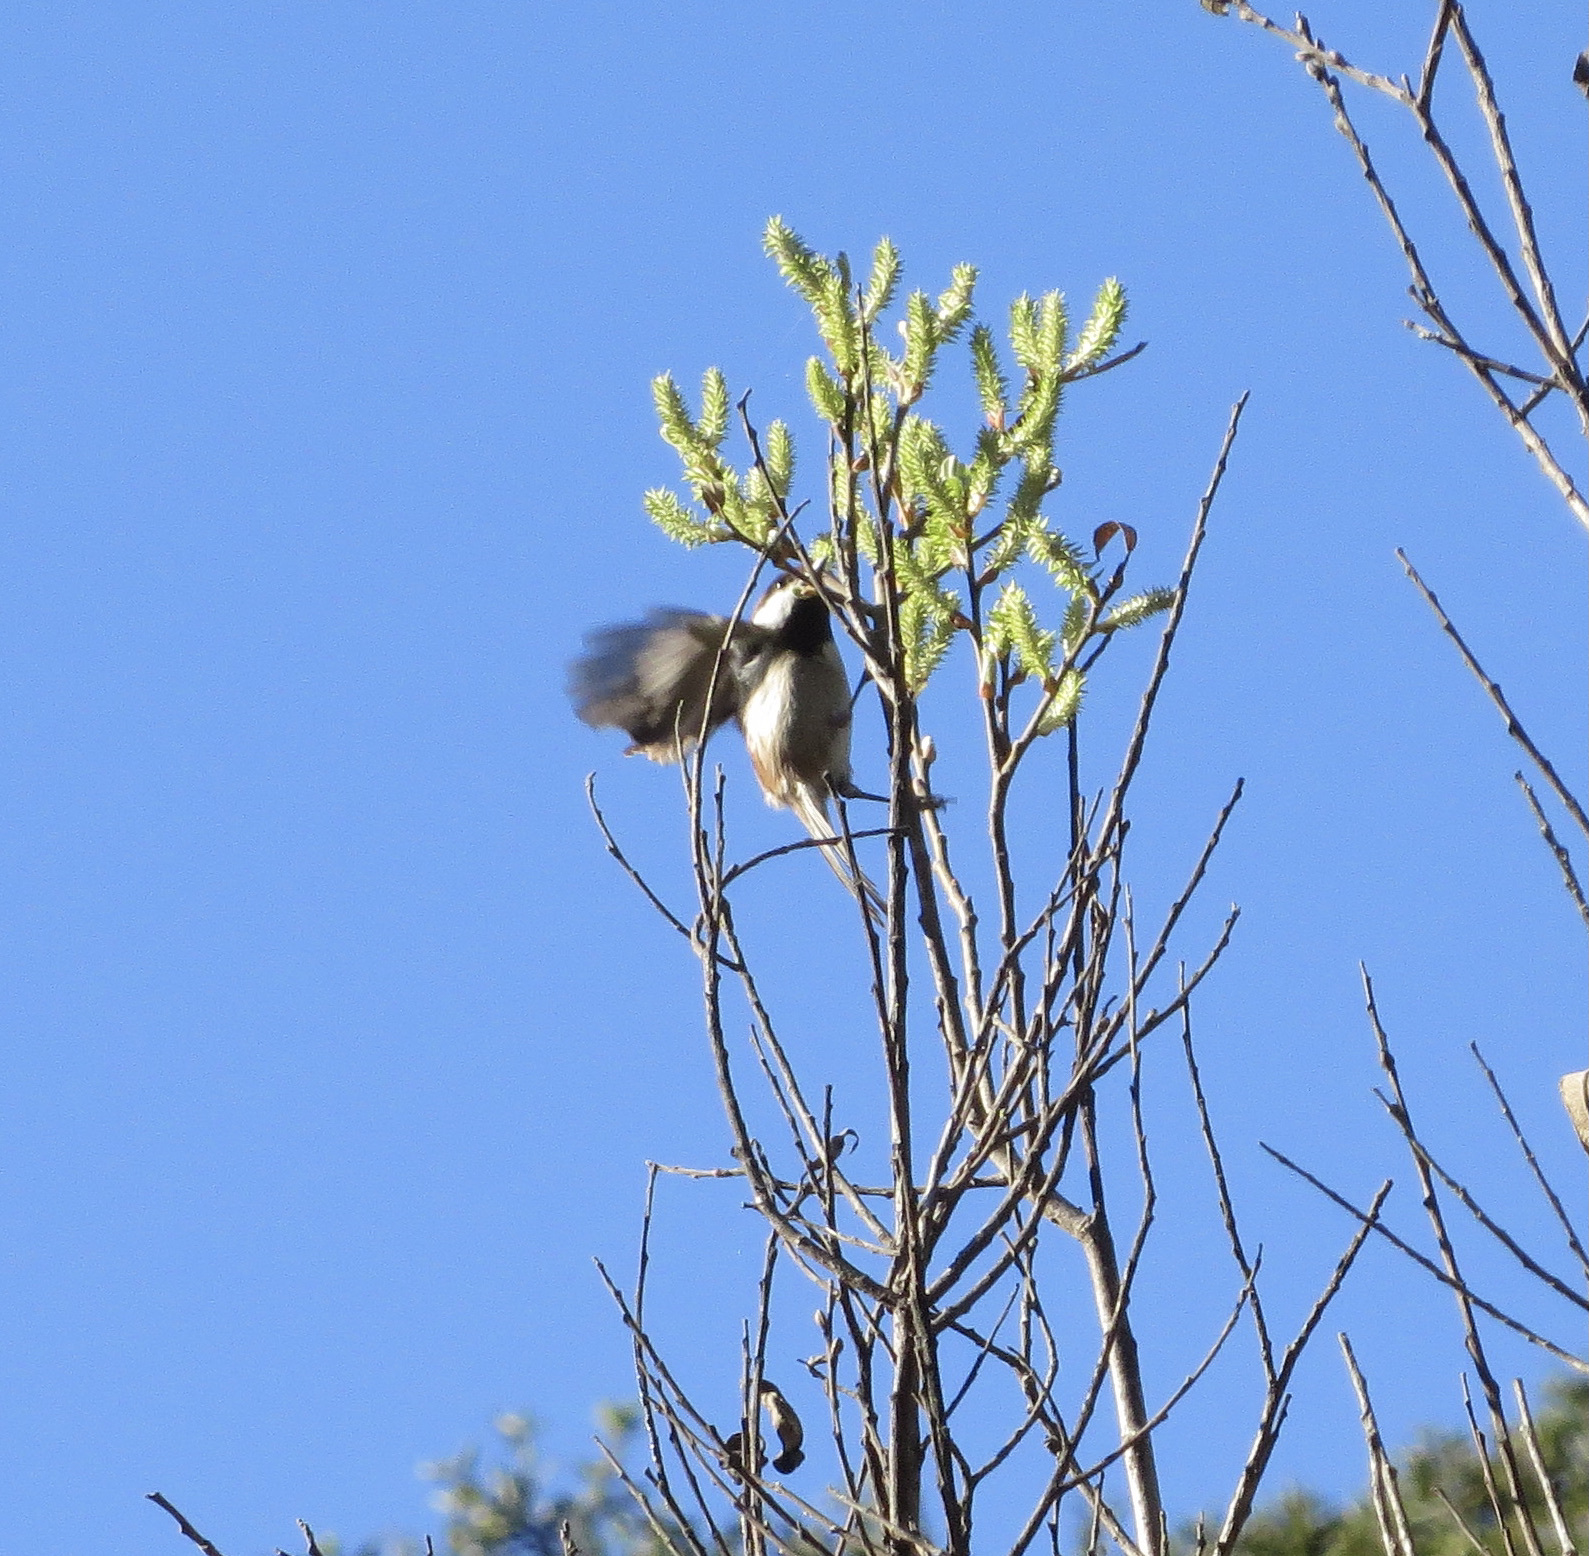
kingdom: Animalia
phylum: Chordata
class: Aves
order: Passeriformes
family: Paridae
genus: Poecile
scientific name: Poecile rufescens
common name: Chestnut-backed chickadee
